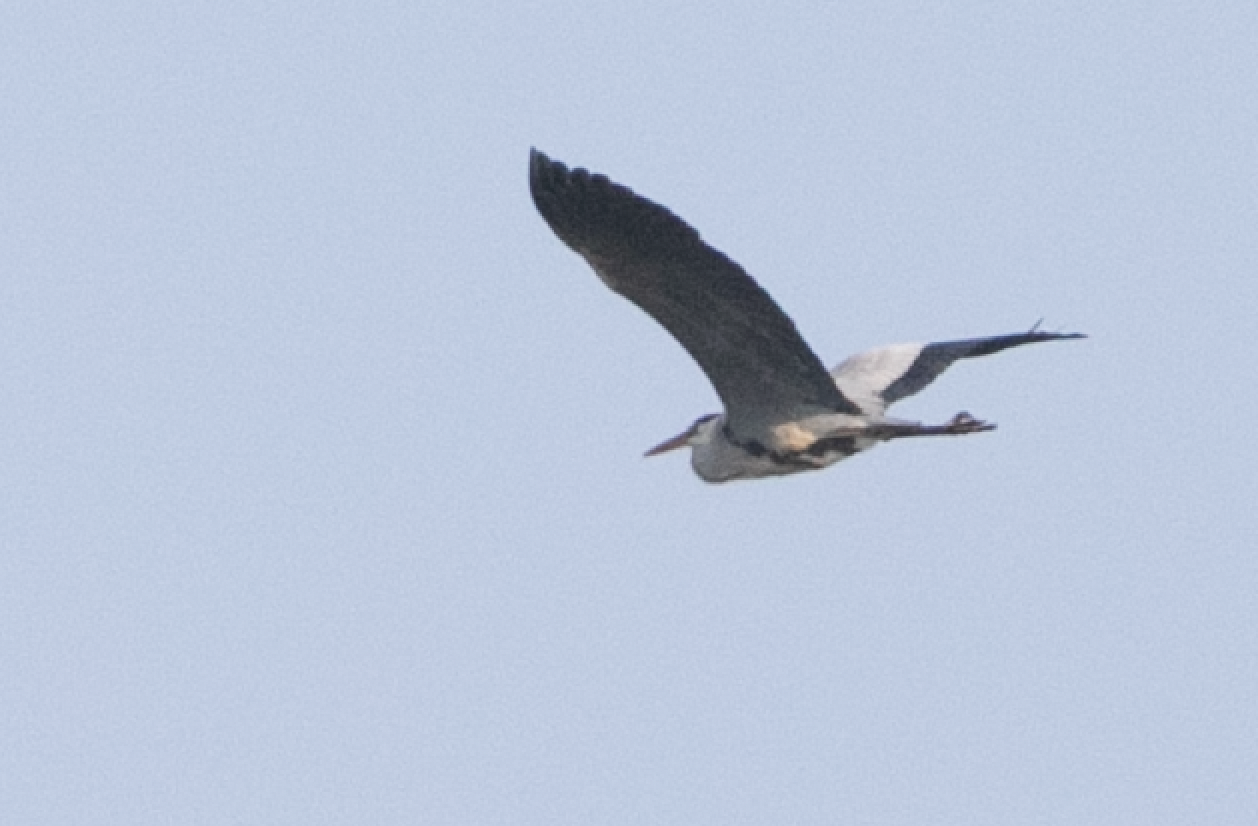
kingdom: Animalia
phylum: Chordata
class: Aves
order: Pelecaniformes
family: Ardeidae
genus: Ardea
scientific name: Ardea cinerea
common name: Grey heron
